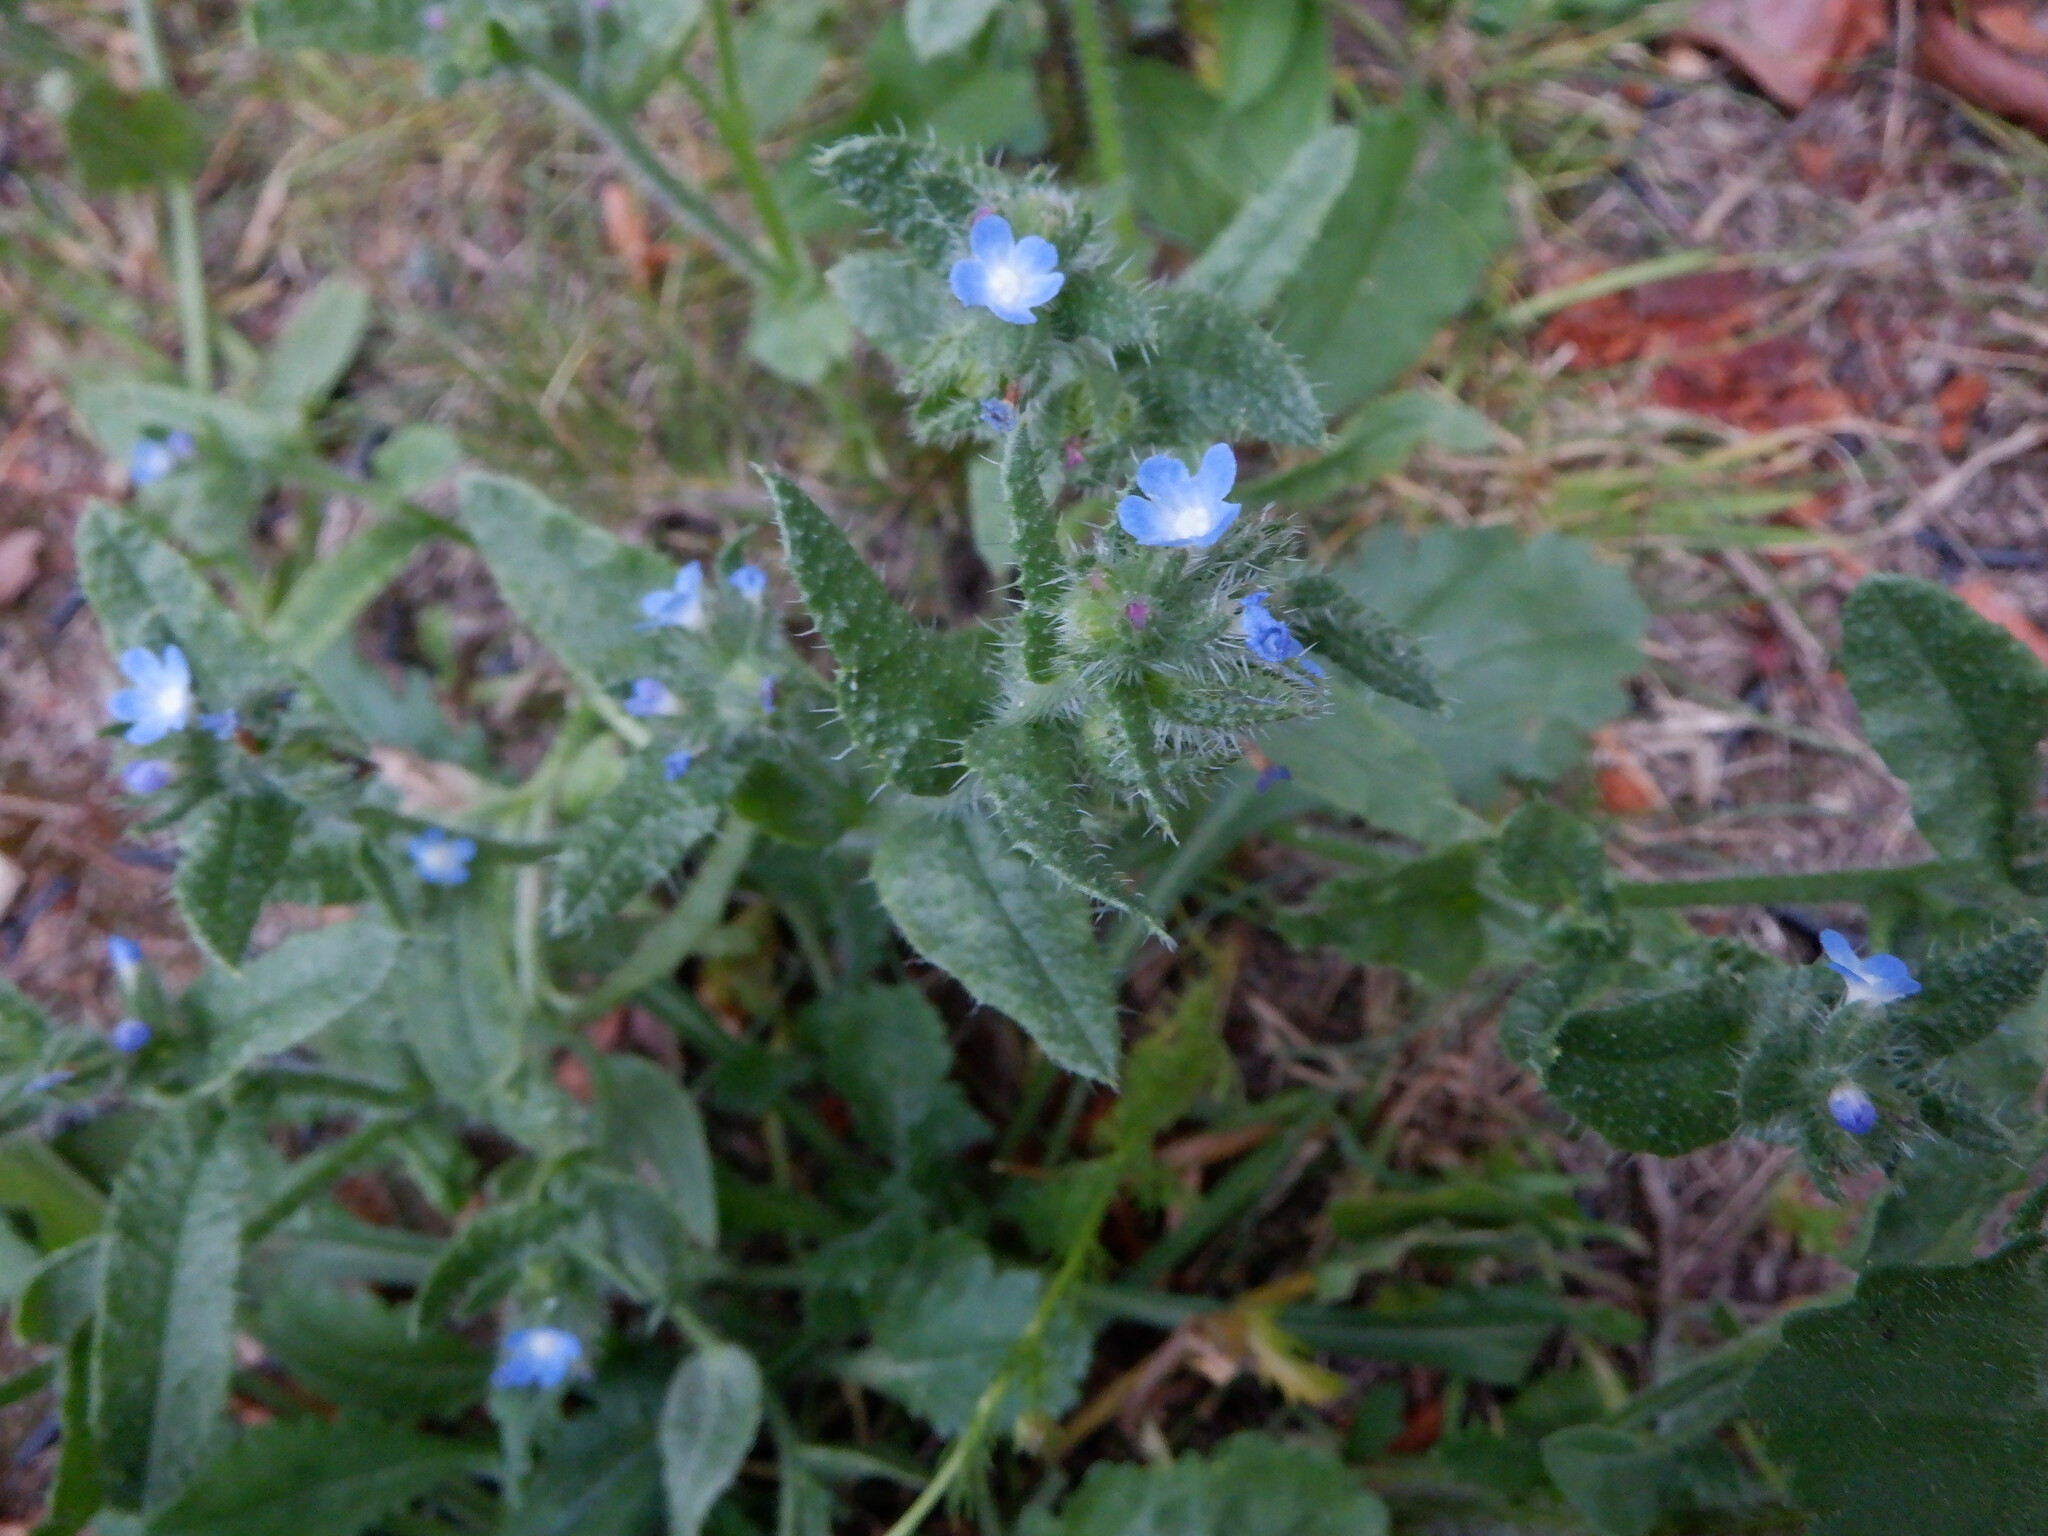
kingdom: Plantae
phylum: Tracheophyta
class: Magnoliopsida
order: Boraginales
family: Boraginaceae
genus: Lycopsis
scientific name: Lycopsis arvensis
